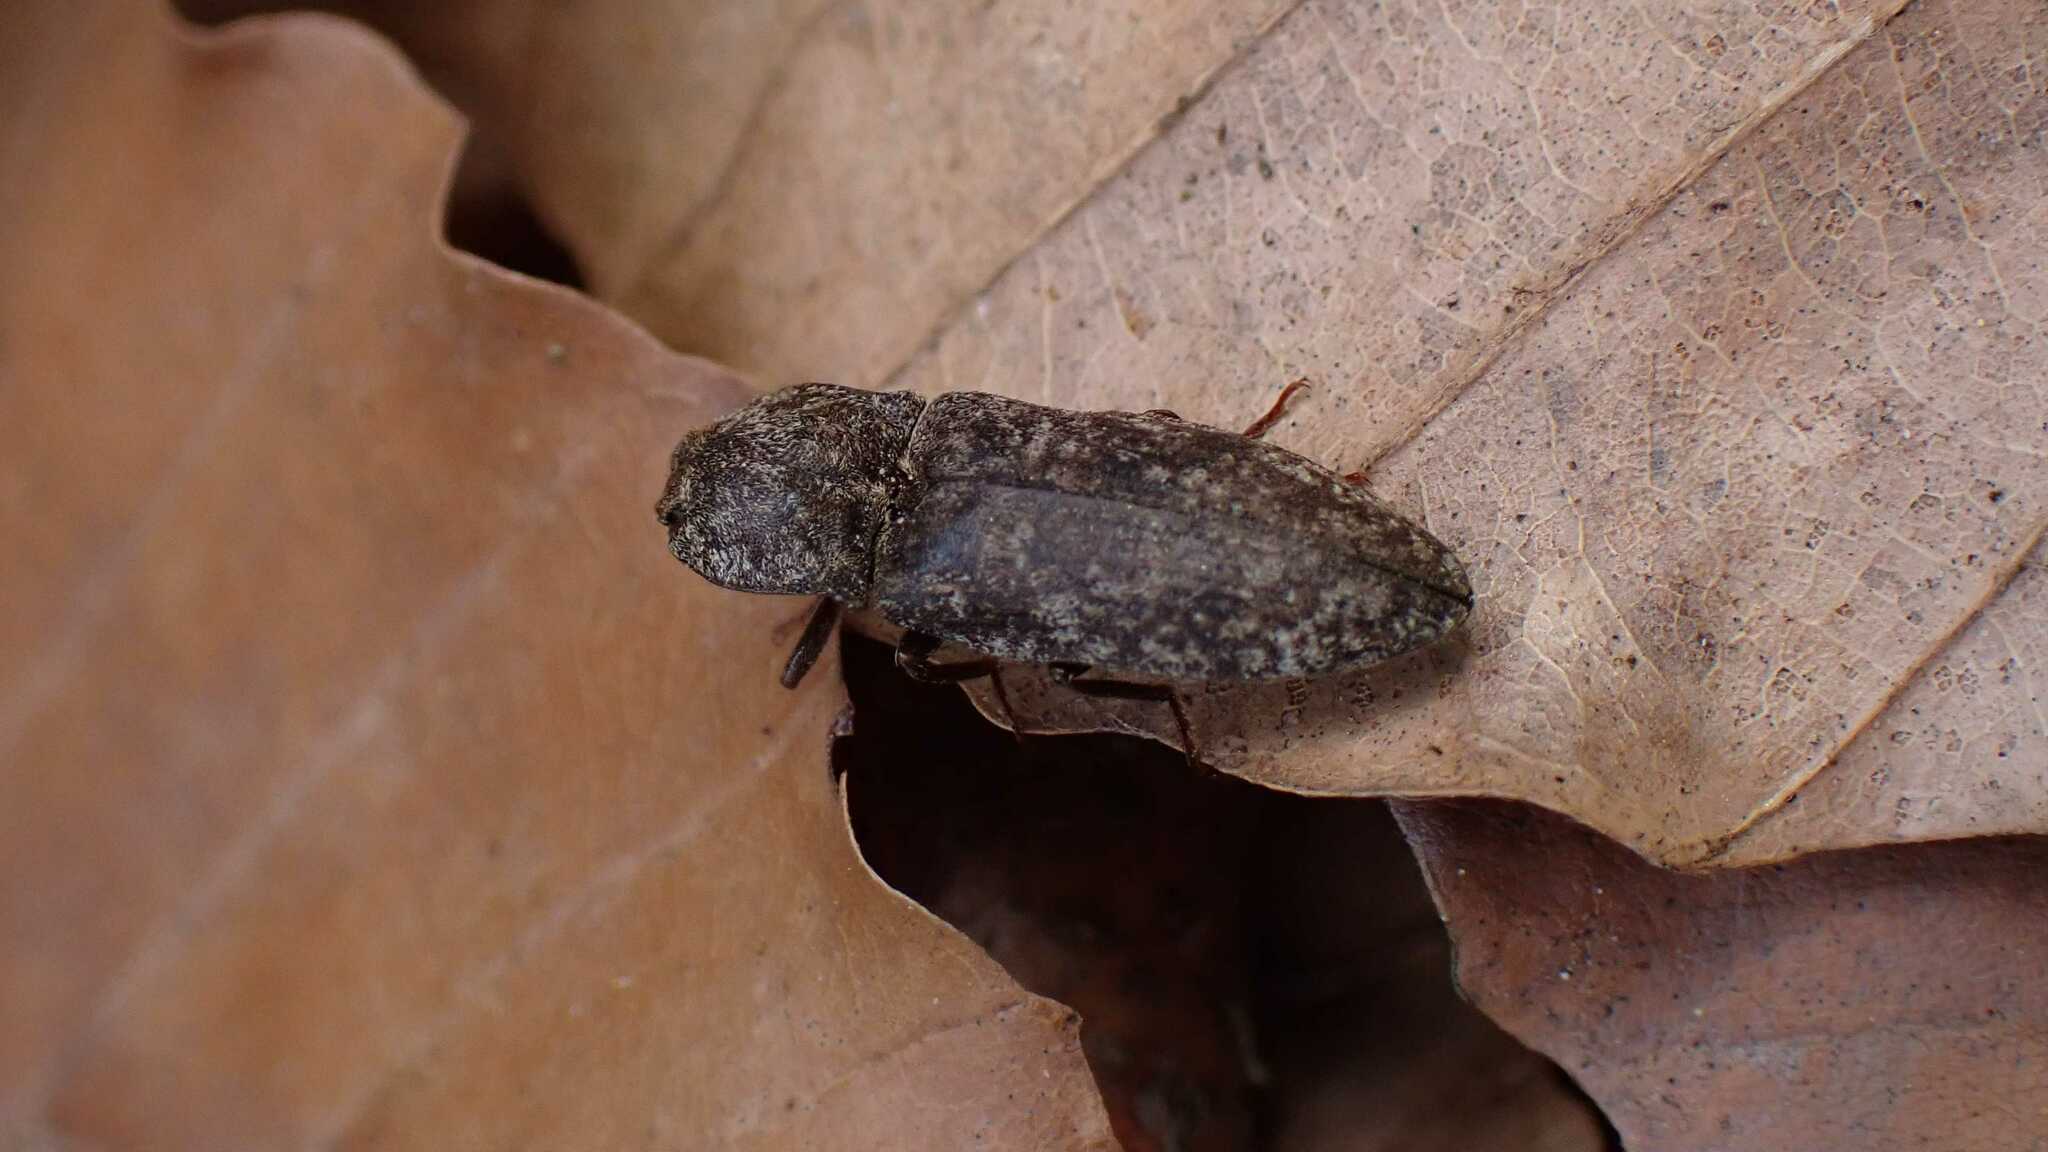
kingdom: Animalia
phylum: Arthropoda
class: Insecta
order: Coleoptera
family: Elateridae
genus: Agrypnus
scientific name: Agrypnus murinus
